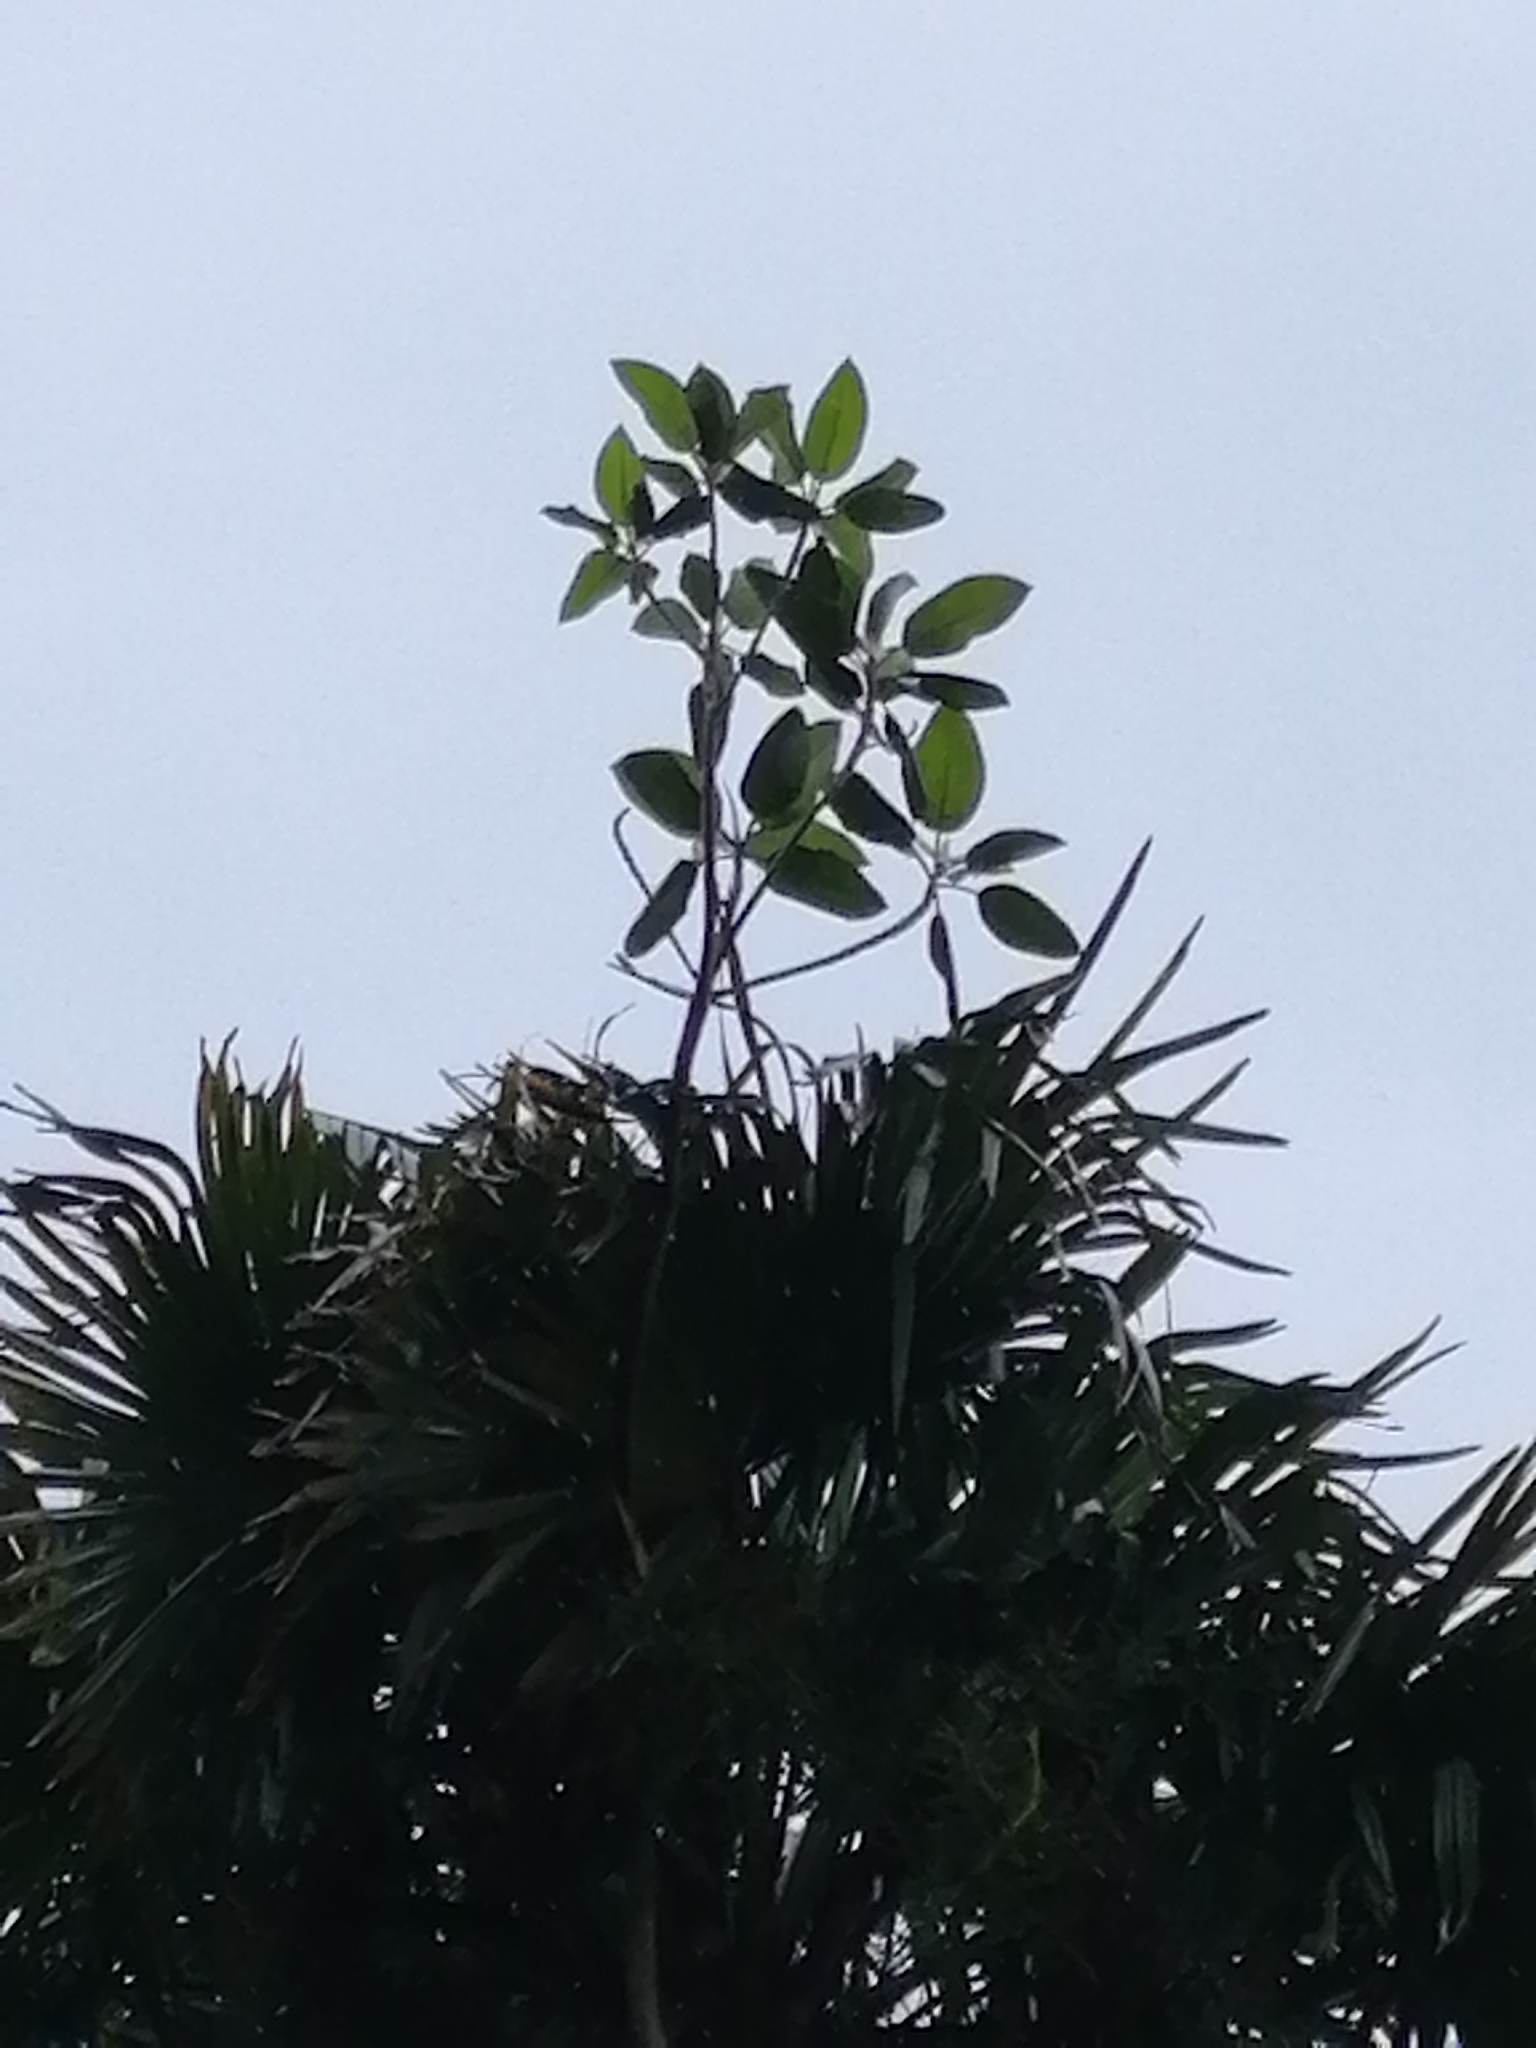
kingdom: Plantae
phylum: Tracheophyta
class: Magnoliopsida
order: Rosales
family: Moraceae
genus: Ficus
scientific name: Ficus macrophylla
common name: Moreton bay fig
